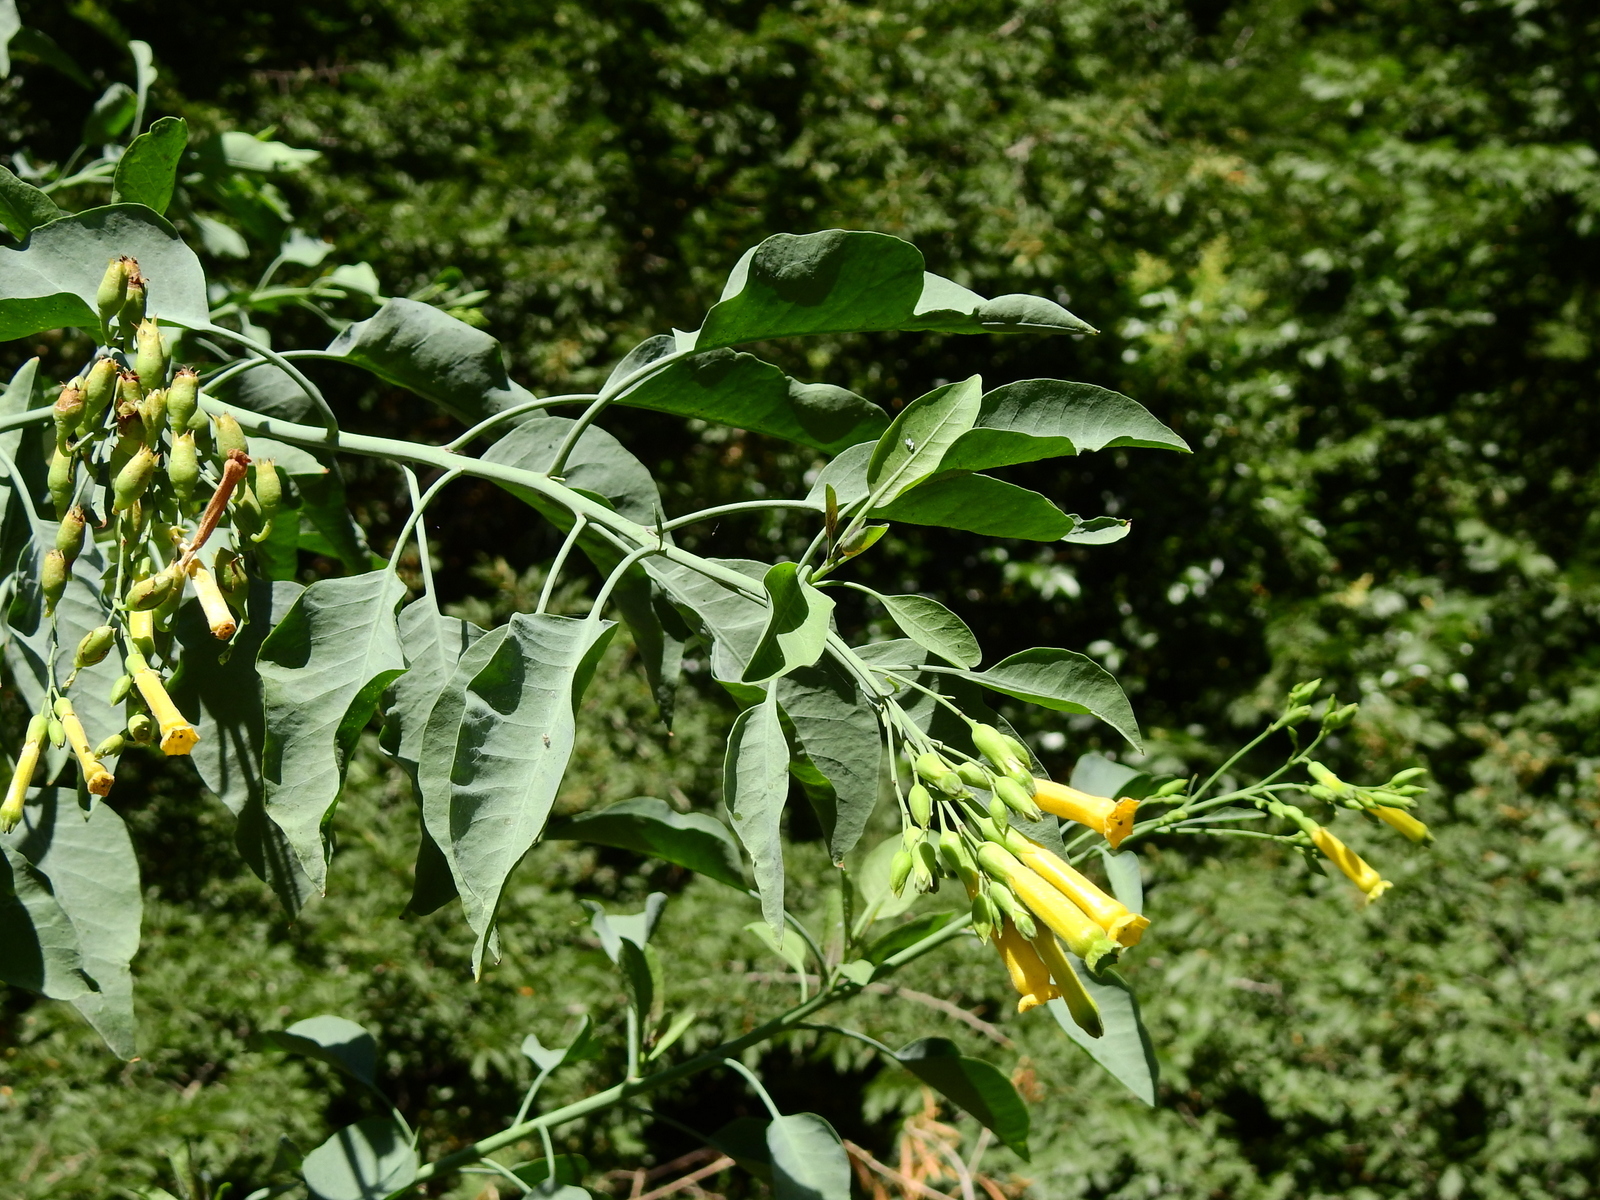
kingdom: Plantae
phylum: Tracheophyta
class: Magnoliopsida
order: Solanales
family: Solanaceae
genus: Nicotiana
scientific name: Nicotiana glauca
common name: Tree tobacco
